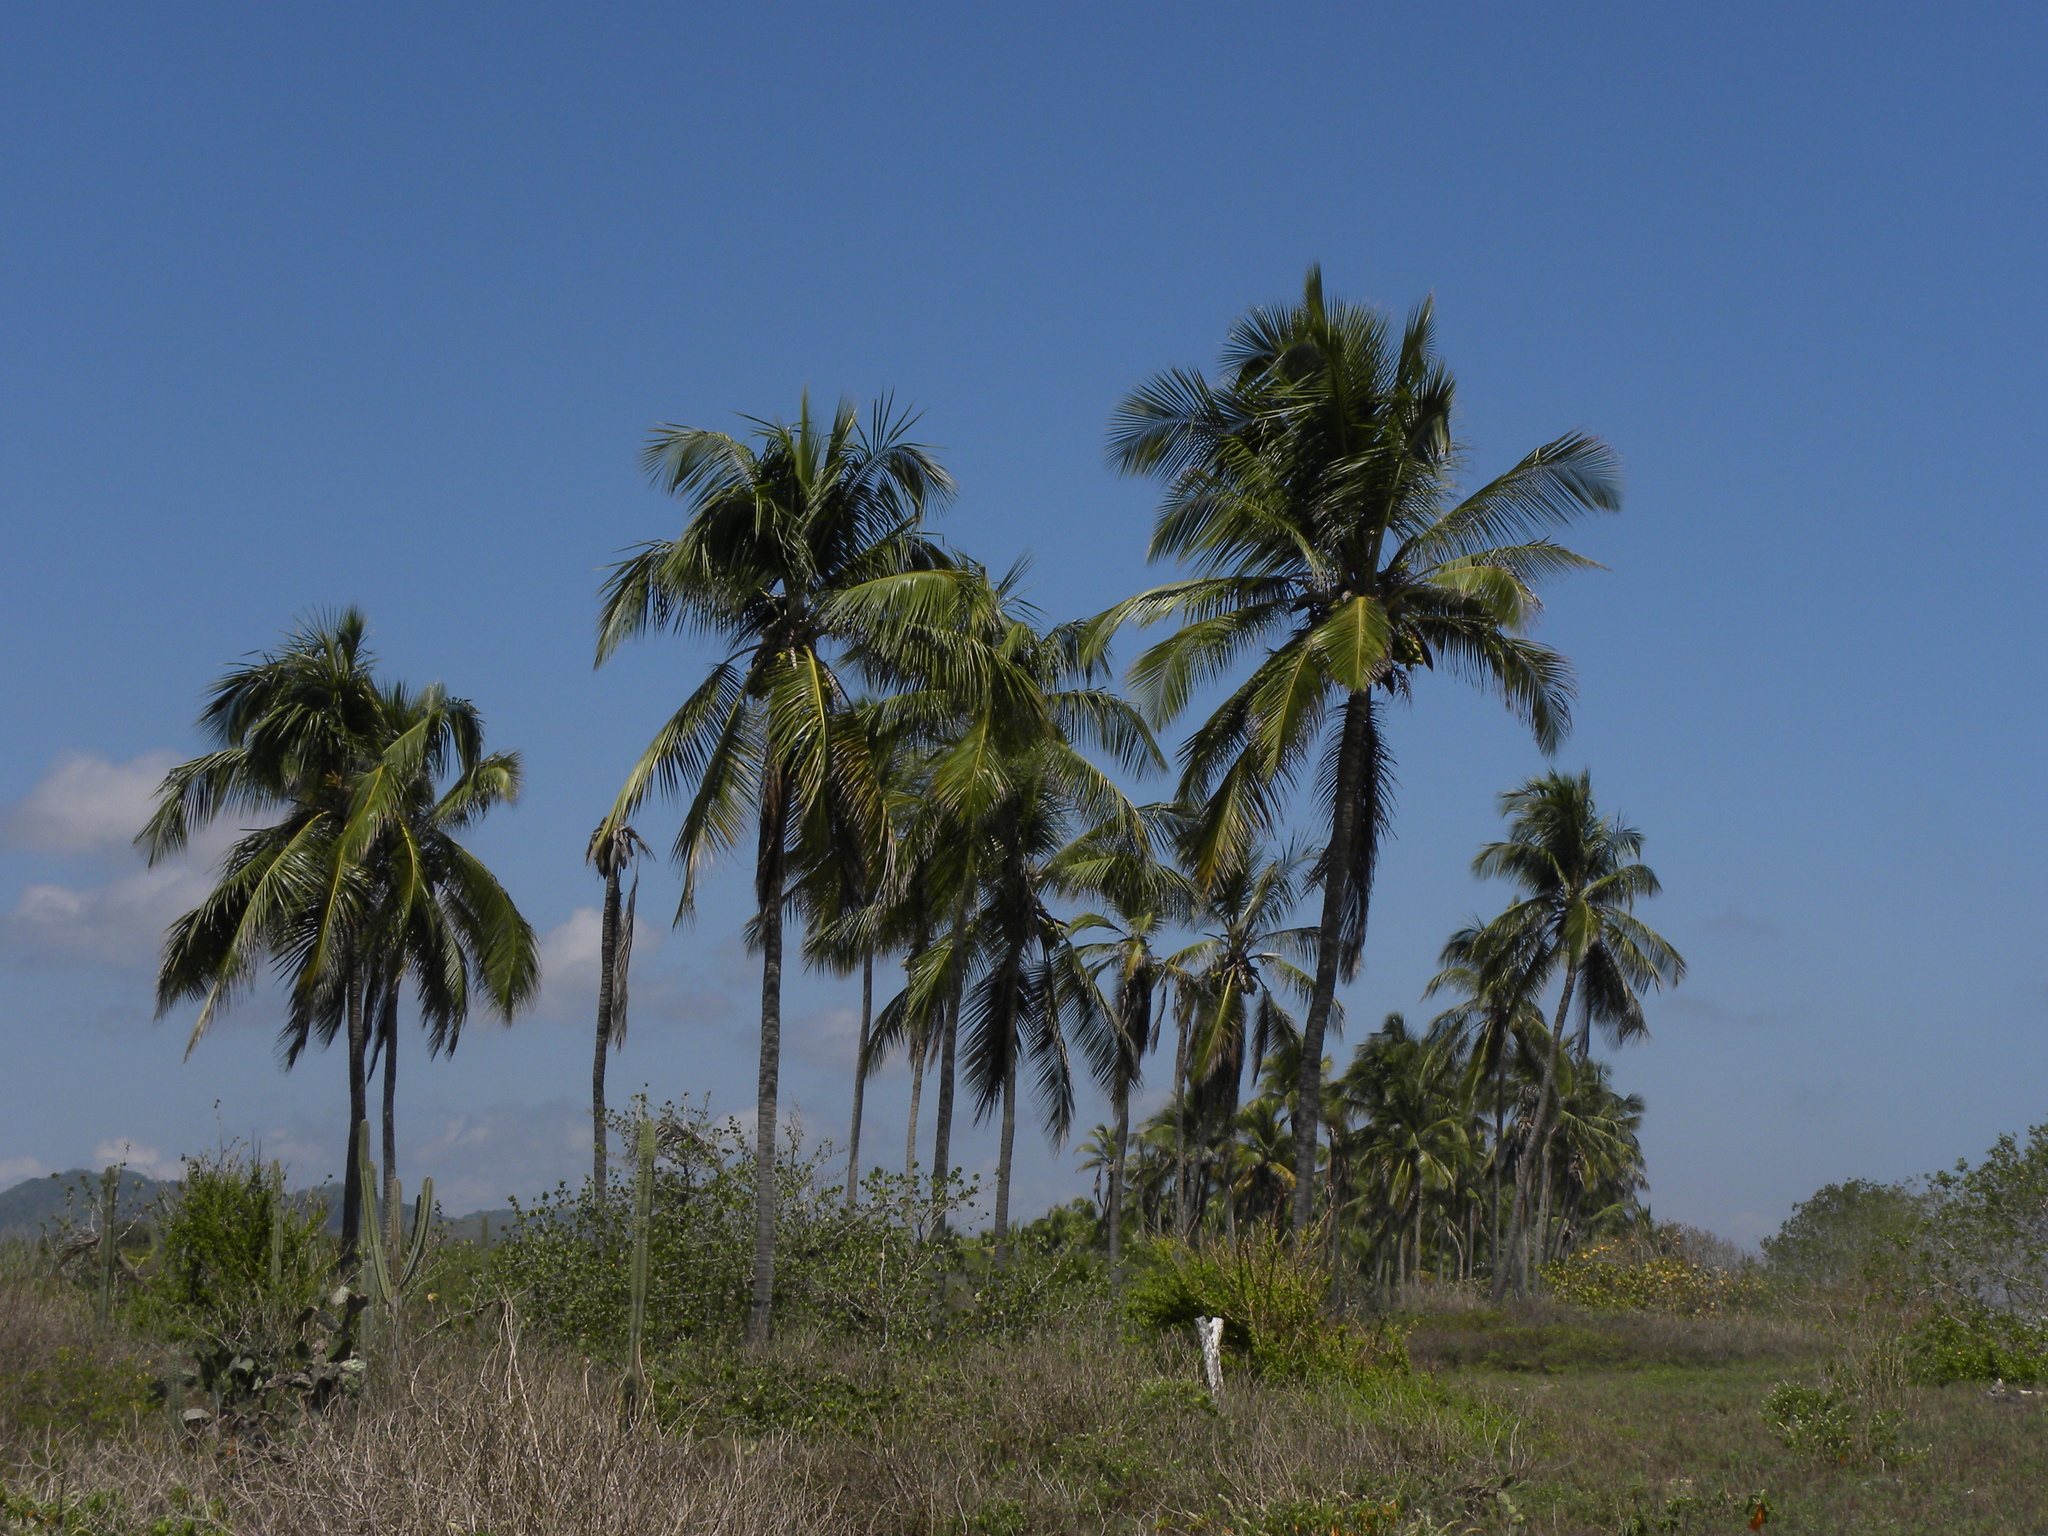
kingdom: Plantae
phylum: Tracheophyta
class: Liliopsida
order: Arecales
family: Arecaceae
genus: Cocos
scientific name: Cocos nucifera
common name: Coconut palm
